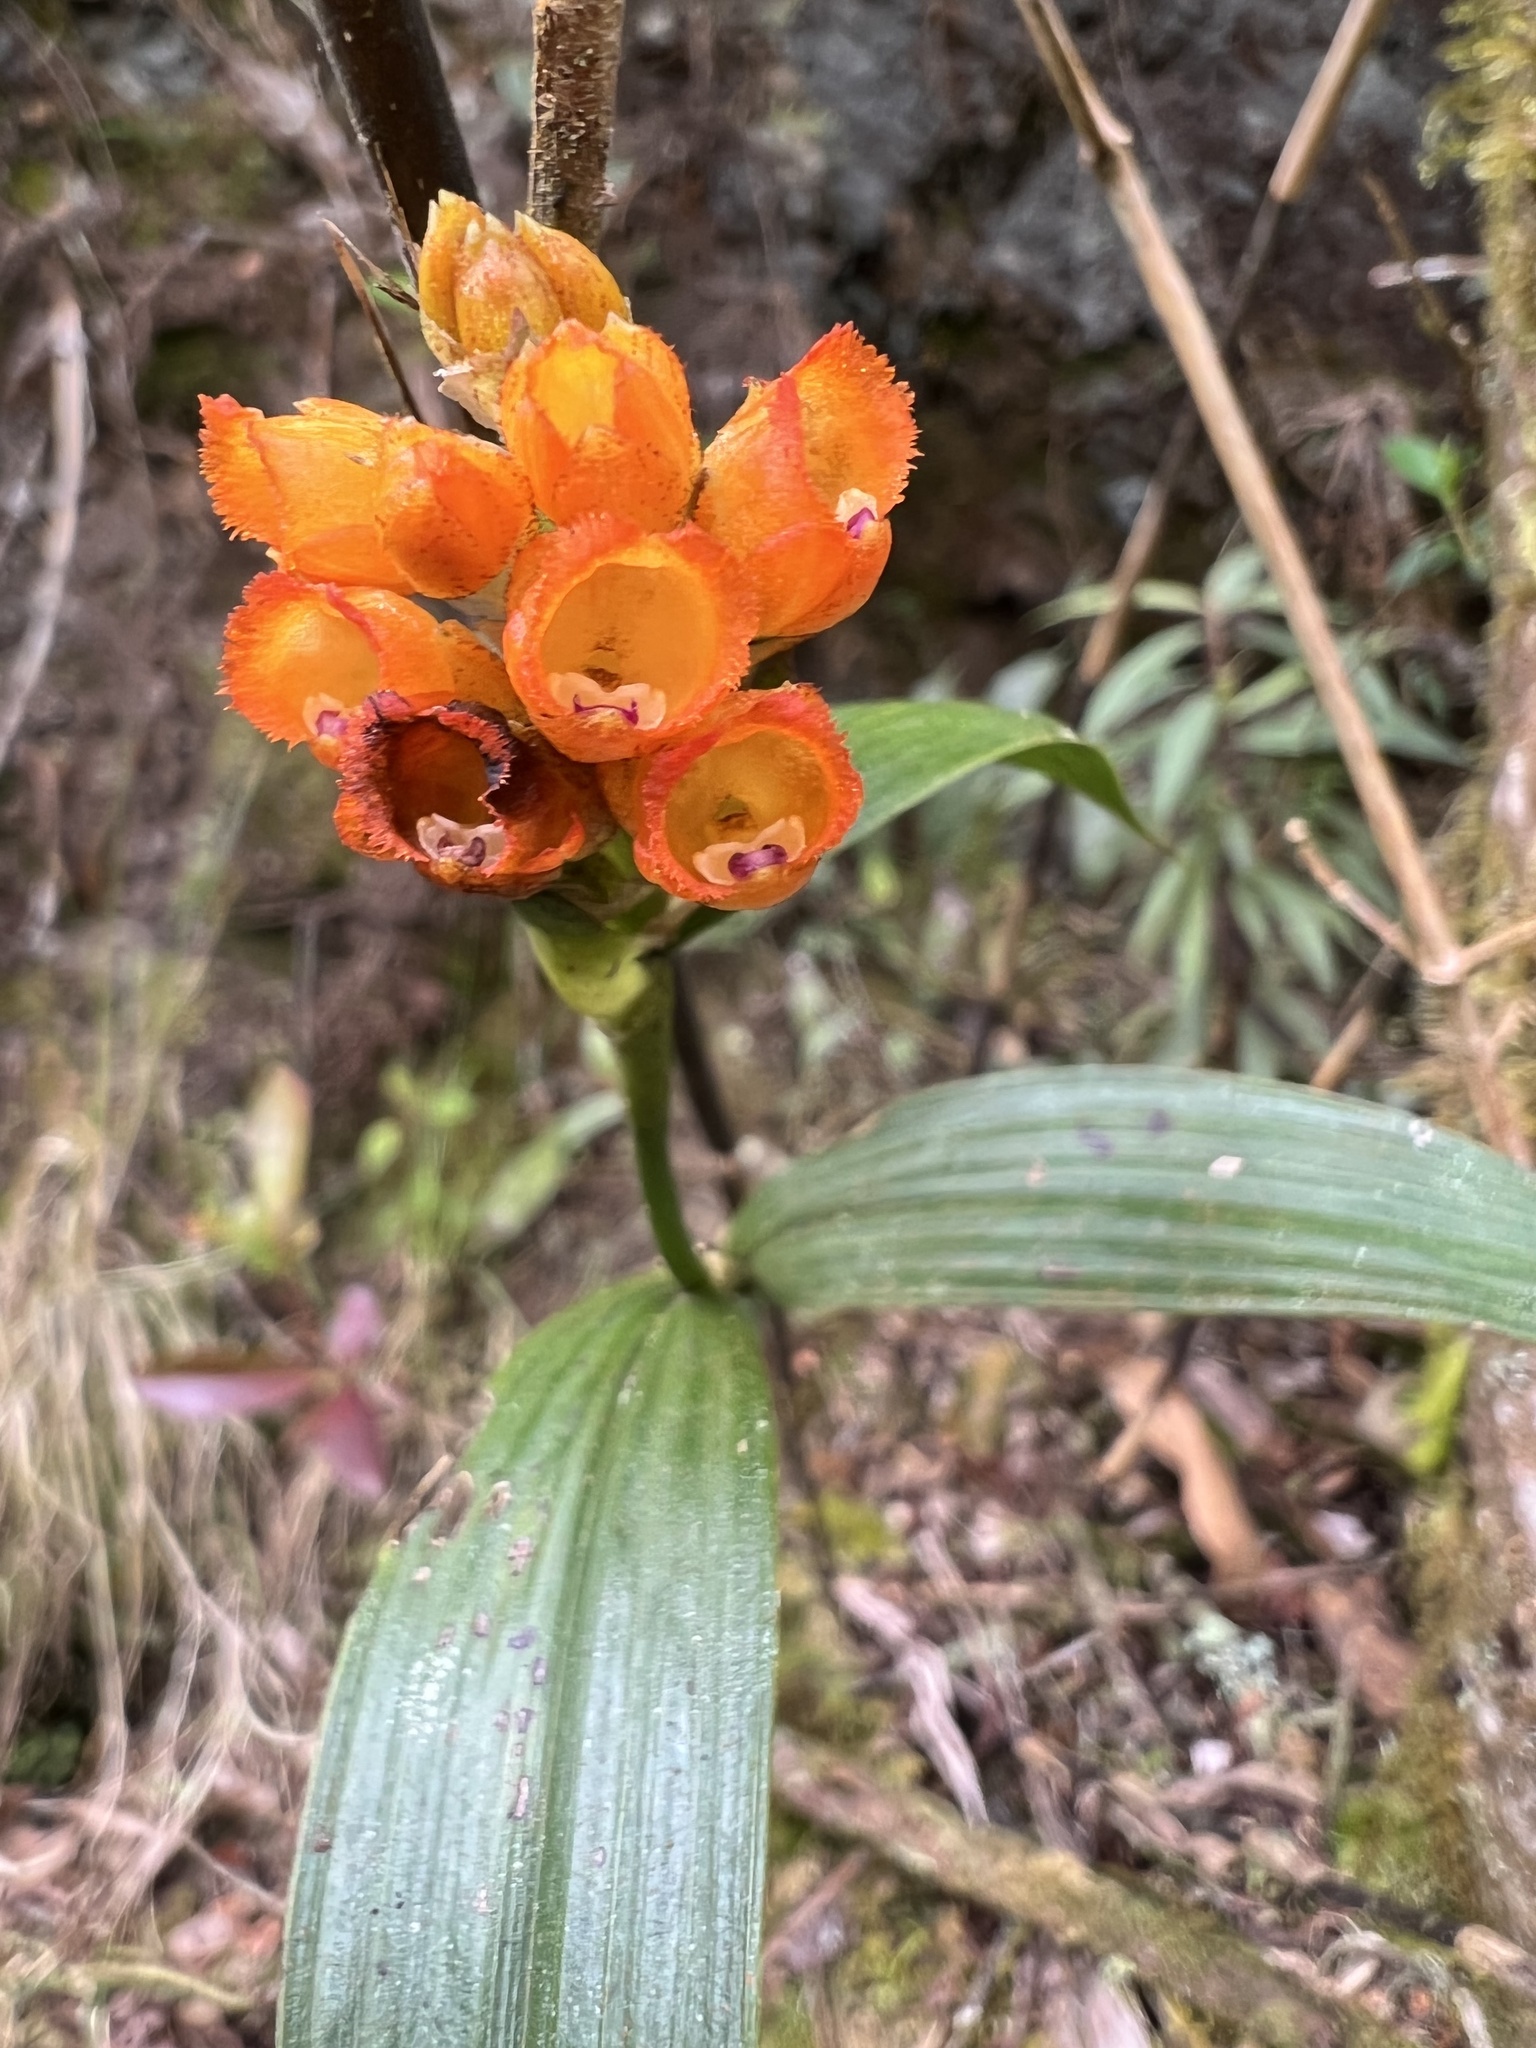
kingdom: Plantae
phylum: Tracheophyta
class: Liliopsida
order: Asparagales
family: Orchidaceae
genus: Elleanthus
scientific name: Elleanthus aurantiacus
